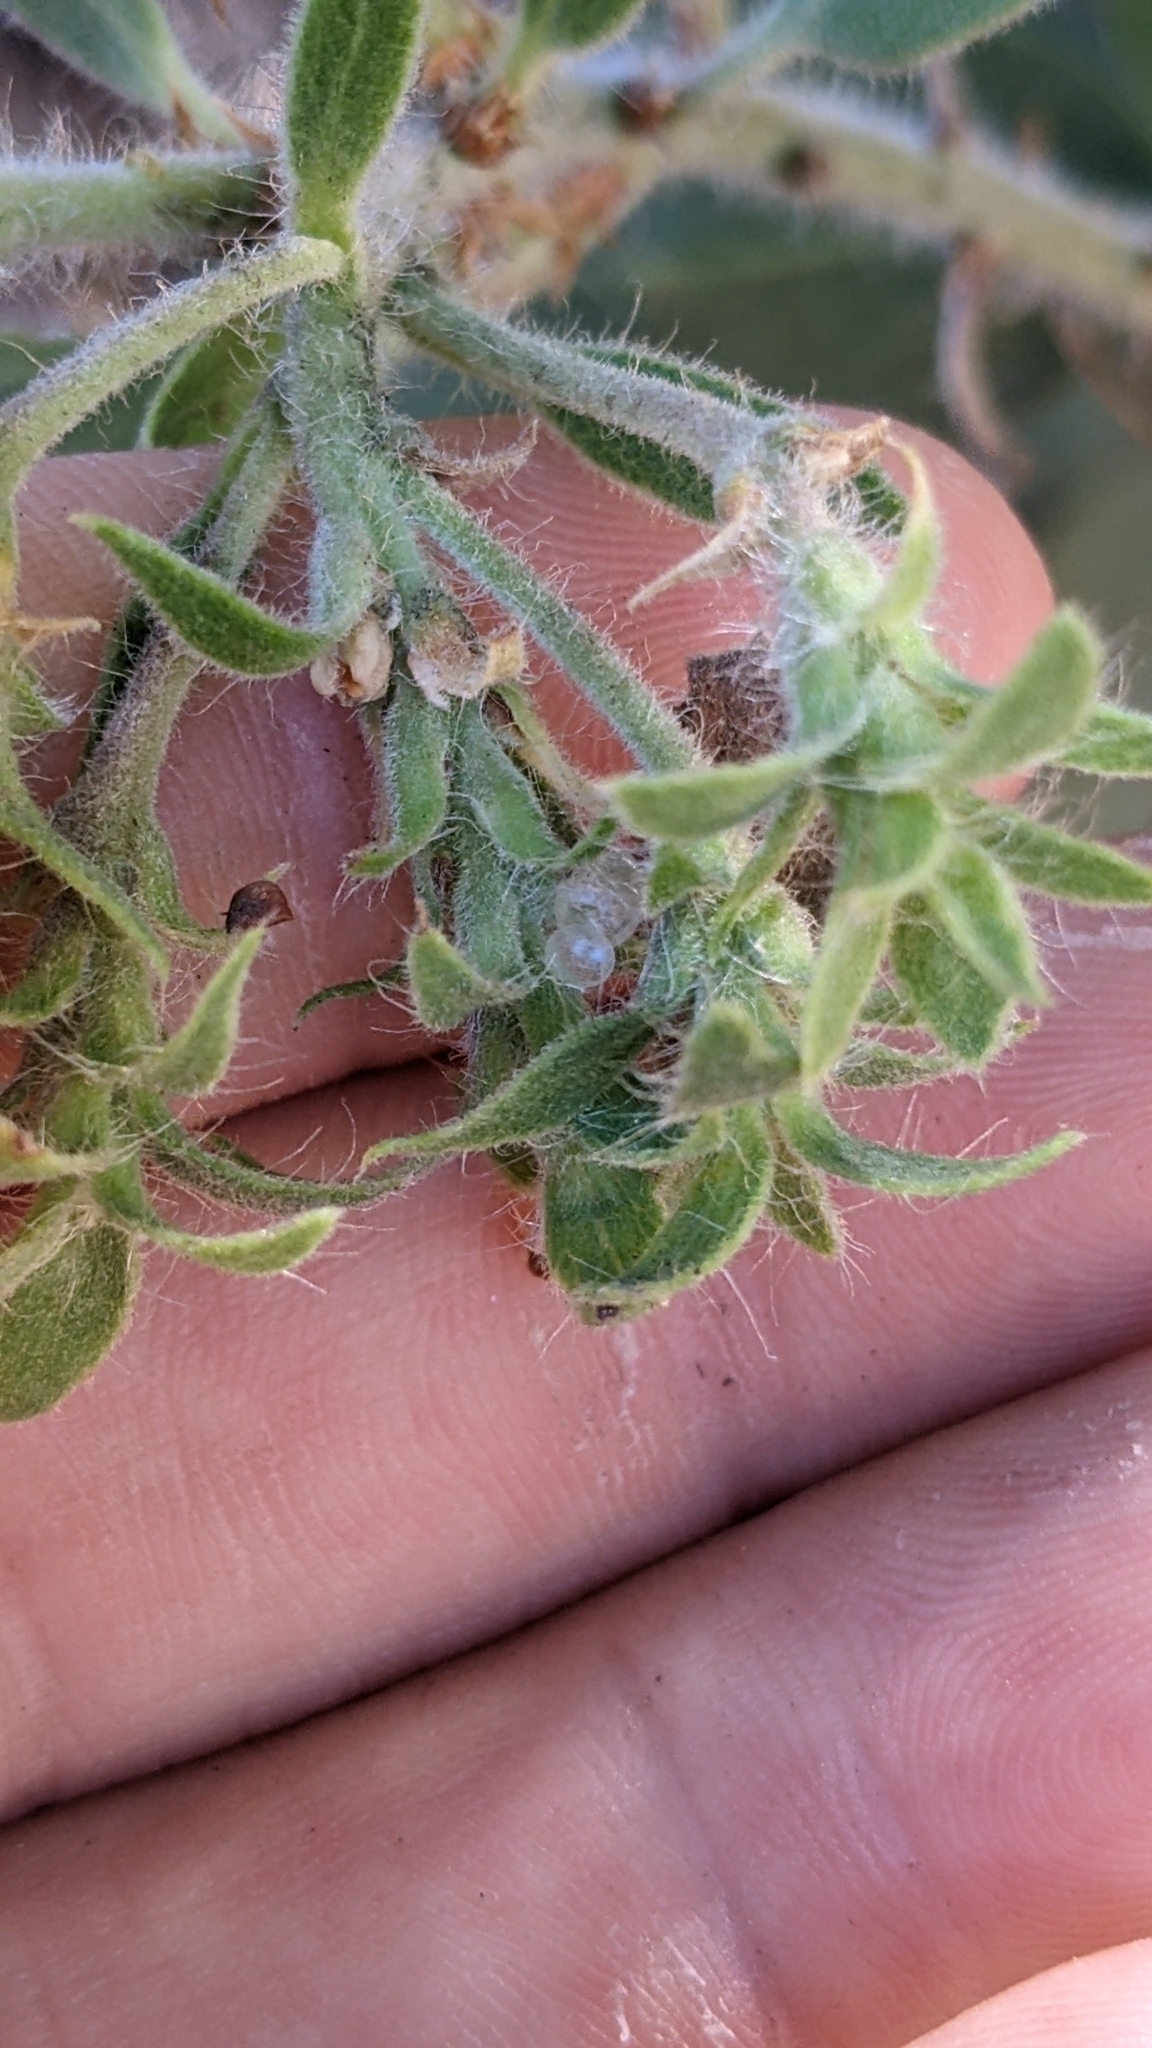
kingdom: Plantae
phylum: Tracheophyta
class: Magnoliopsida
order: Ericales
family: Ericaceae
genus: Arctostaphylos
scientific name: Arctostaphylos glandulosa
